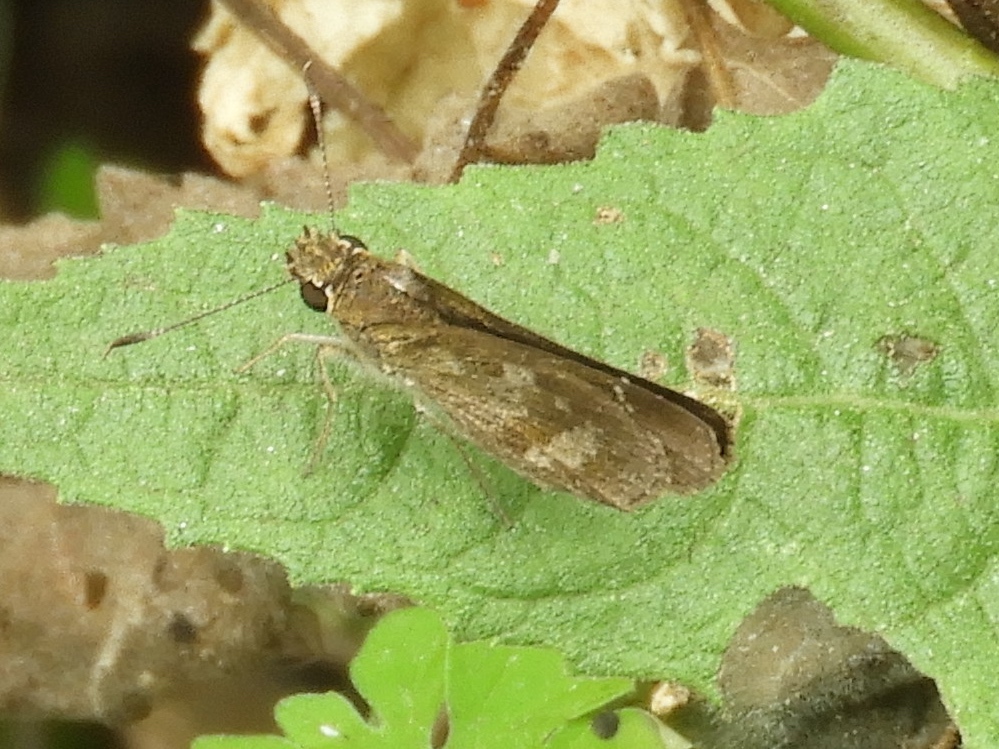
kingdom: Animalia
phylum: Arthropoda
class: Insecta
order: Lepidoptera
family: Hesperiidae
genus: Cymaenes
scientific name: Cymaenes
